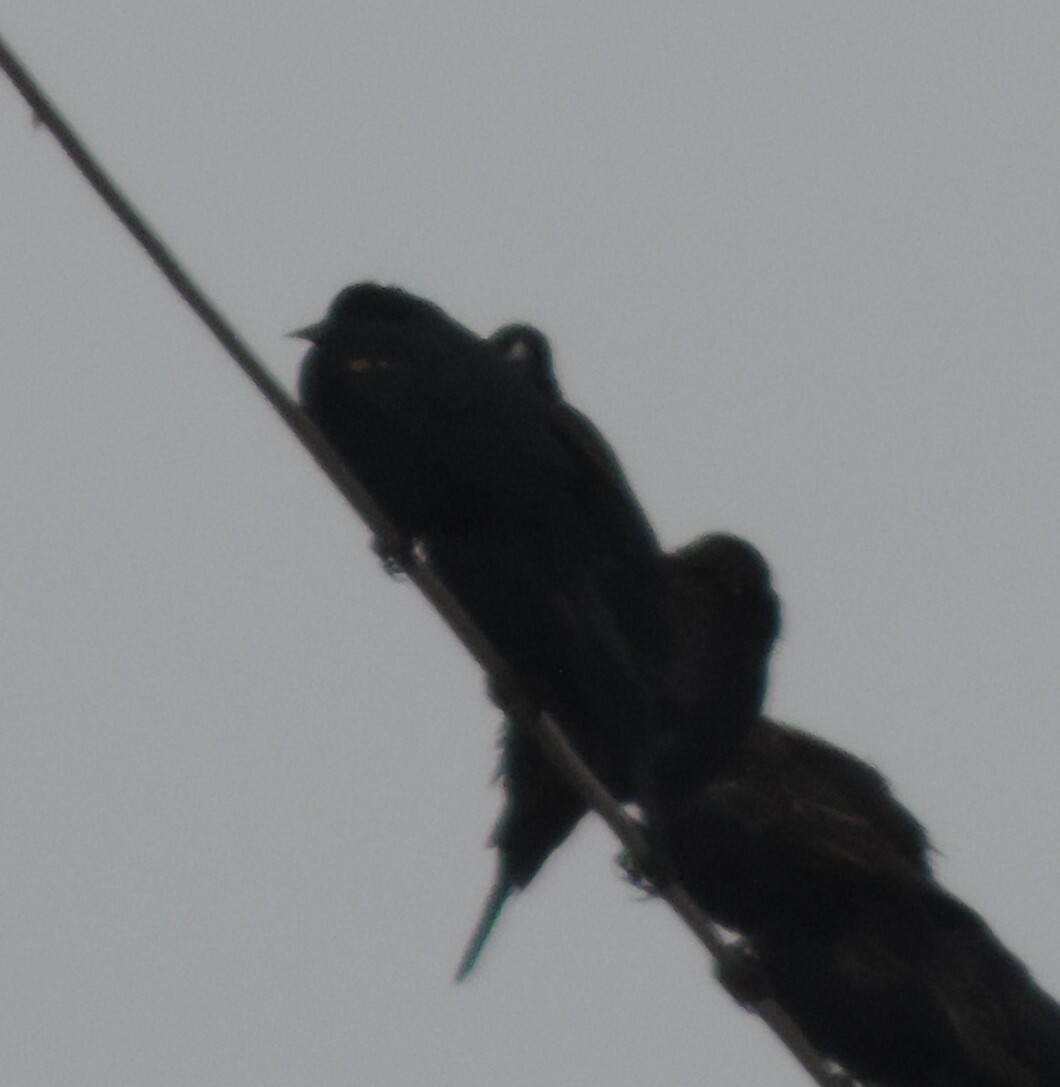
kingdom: Animalia
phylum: Chordata
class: Aves
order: Passeriformes
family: Icteridae
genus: Agelaius
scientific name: Agelaius phoeniceus
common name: Red-winged blackbird
